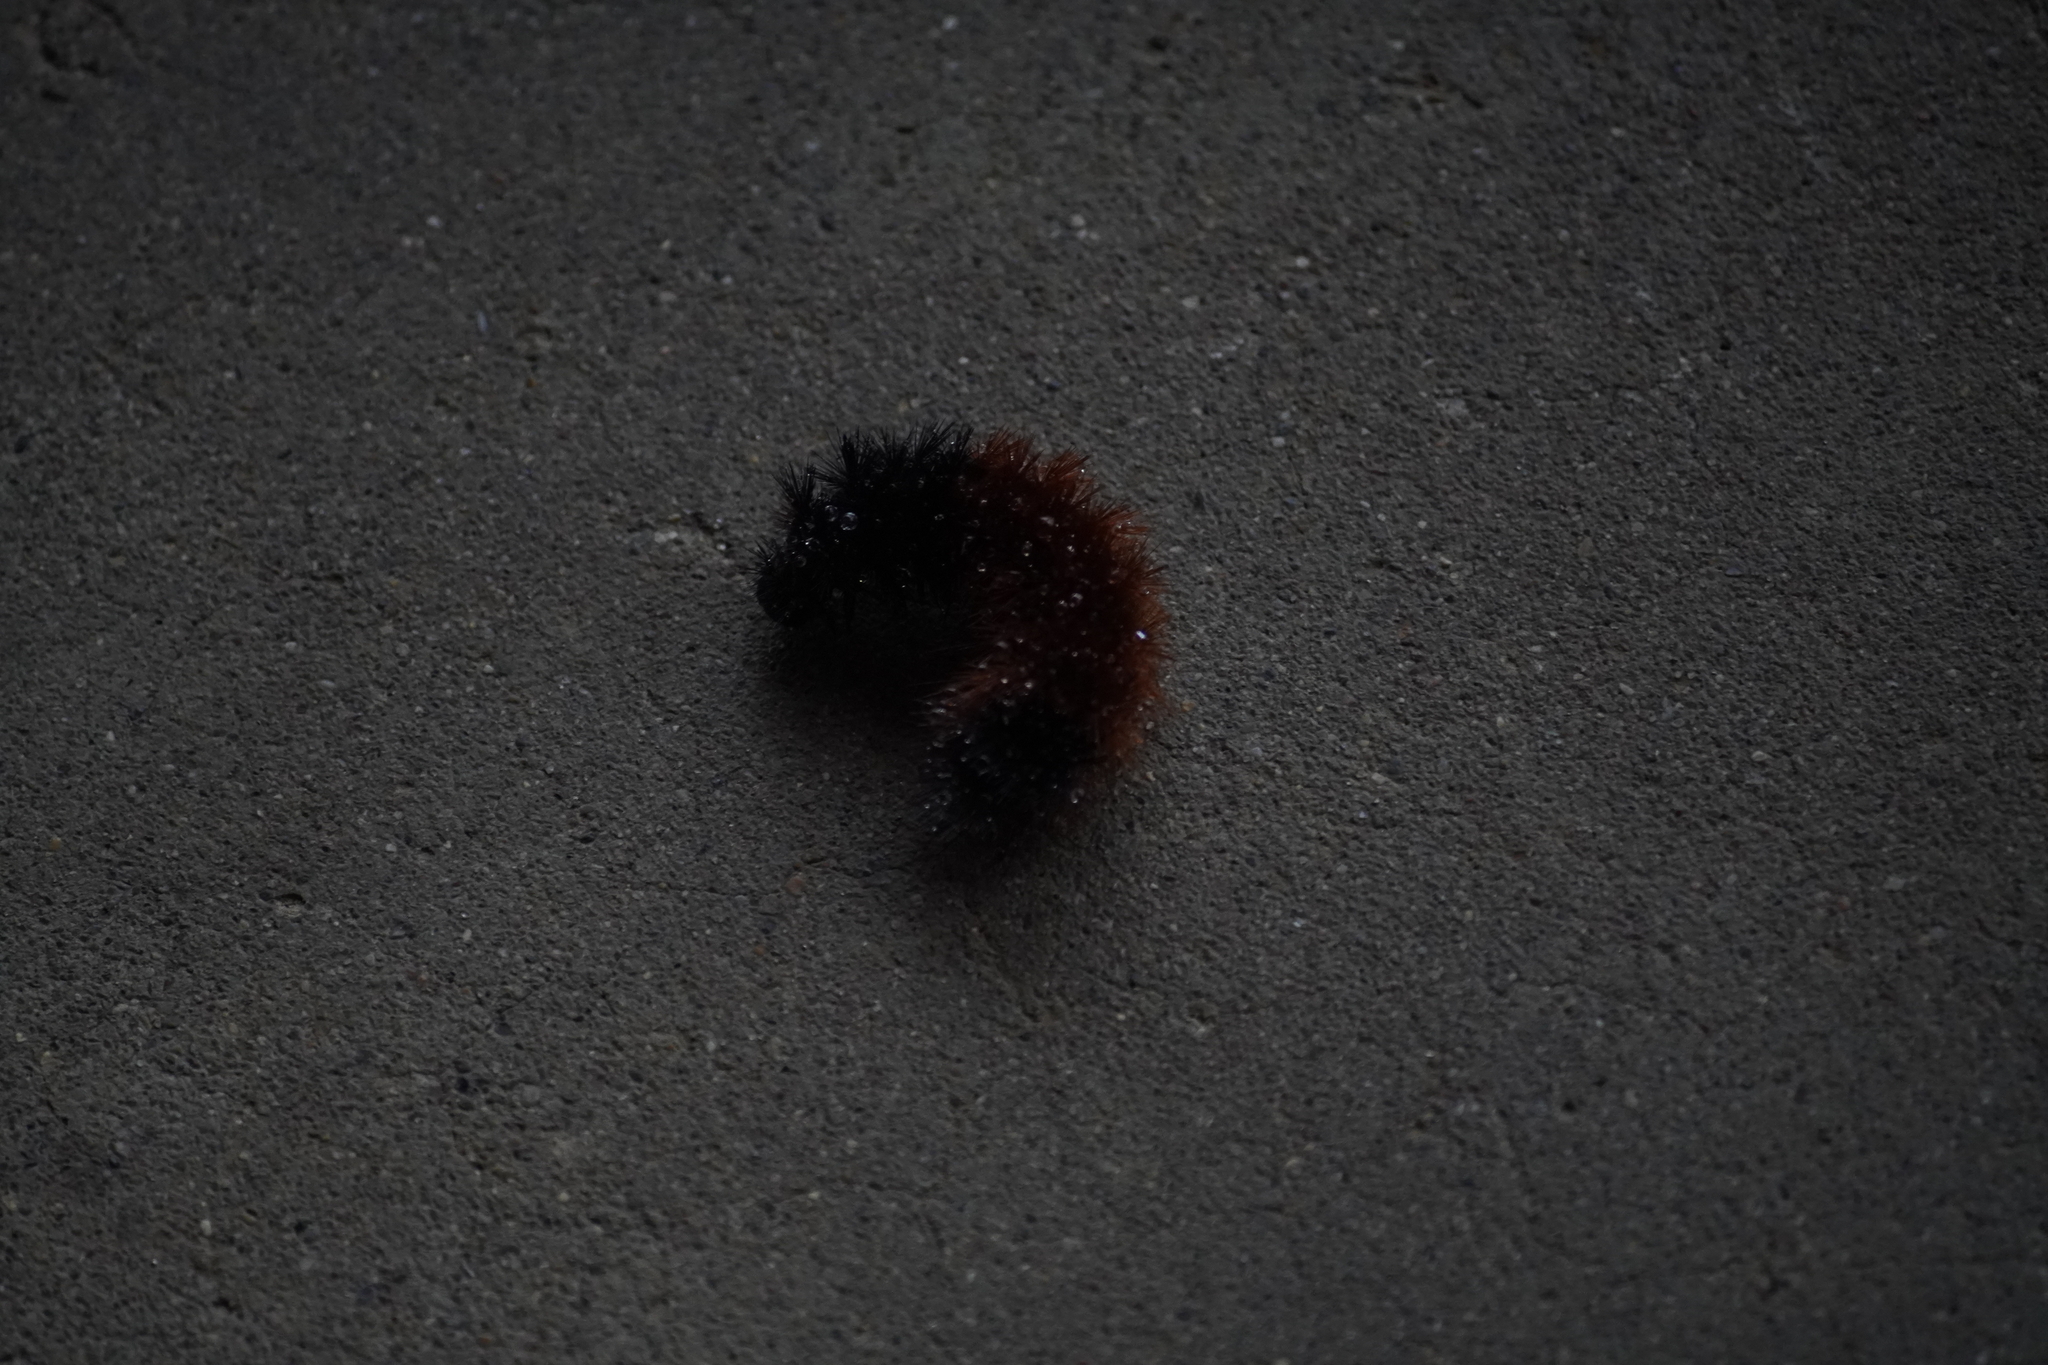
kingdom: Animalia
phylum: Arthropoda
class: Insecta
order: Lepidoptera
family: Erebidae
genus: Pyrrharctia
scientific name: Pyrrharctia isabella
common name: Isabella tiger moth
